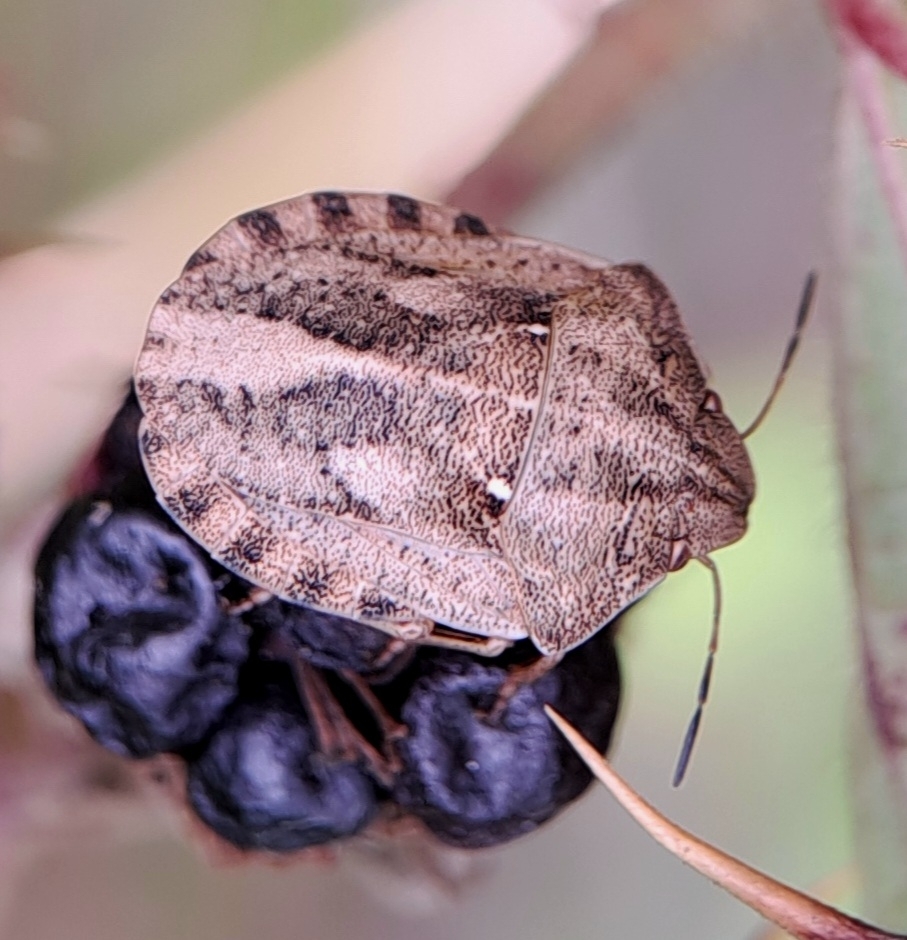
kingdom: Animalia
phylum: Arthropoda
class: Insecta
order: Hemiptera
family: Scutelleridae
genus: Eurygaster
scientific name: Eurygaster testudinaria
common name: Tortoise bug
